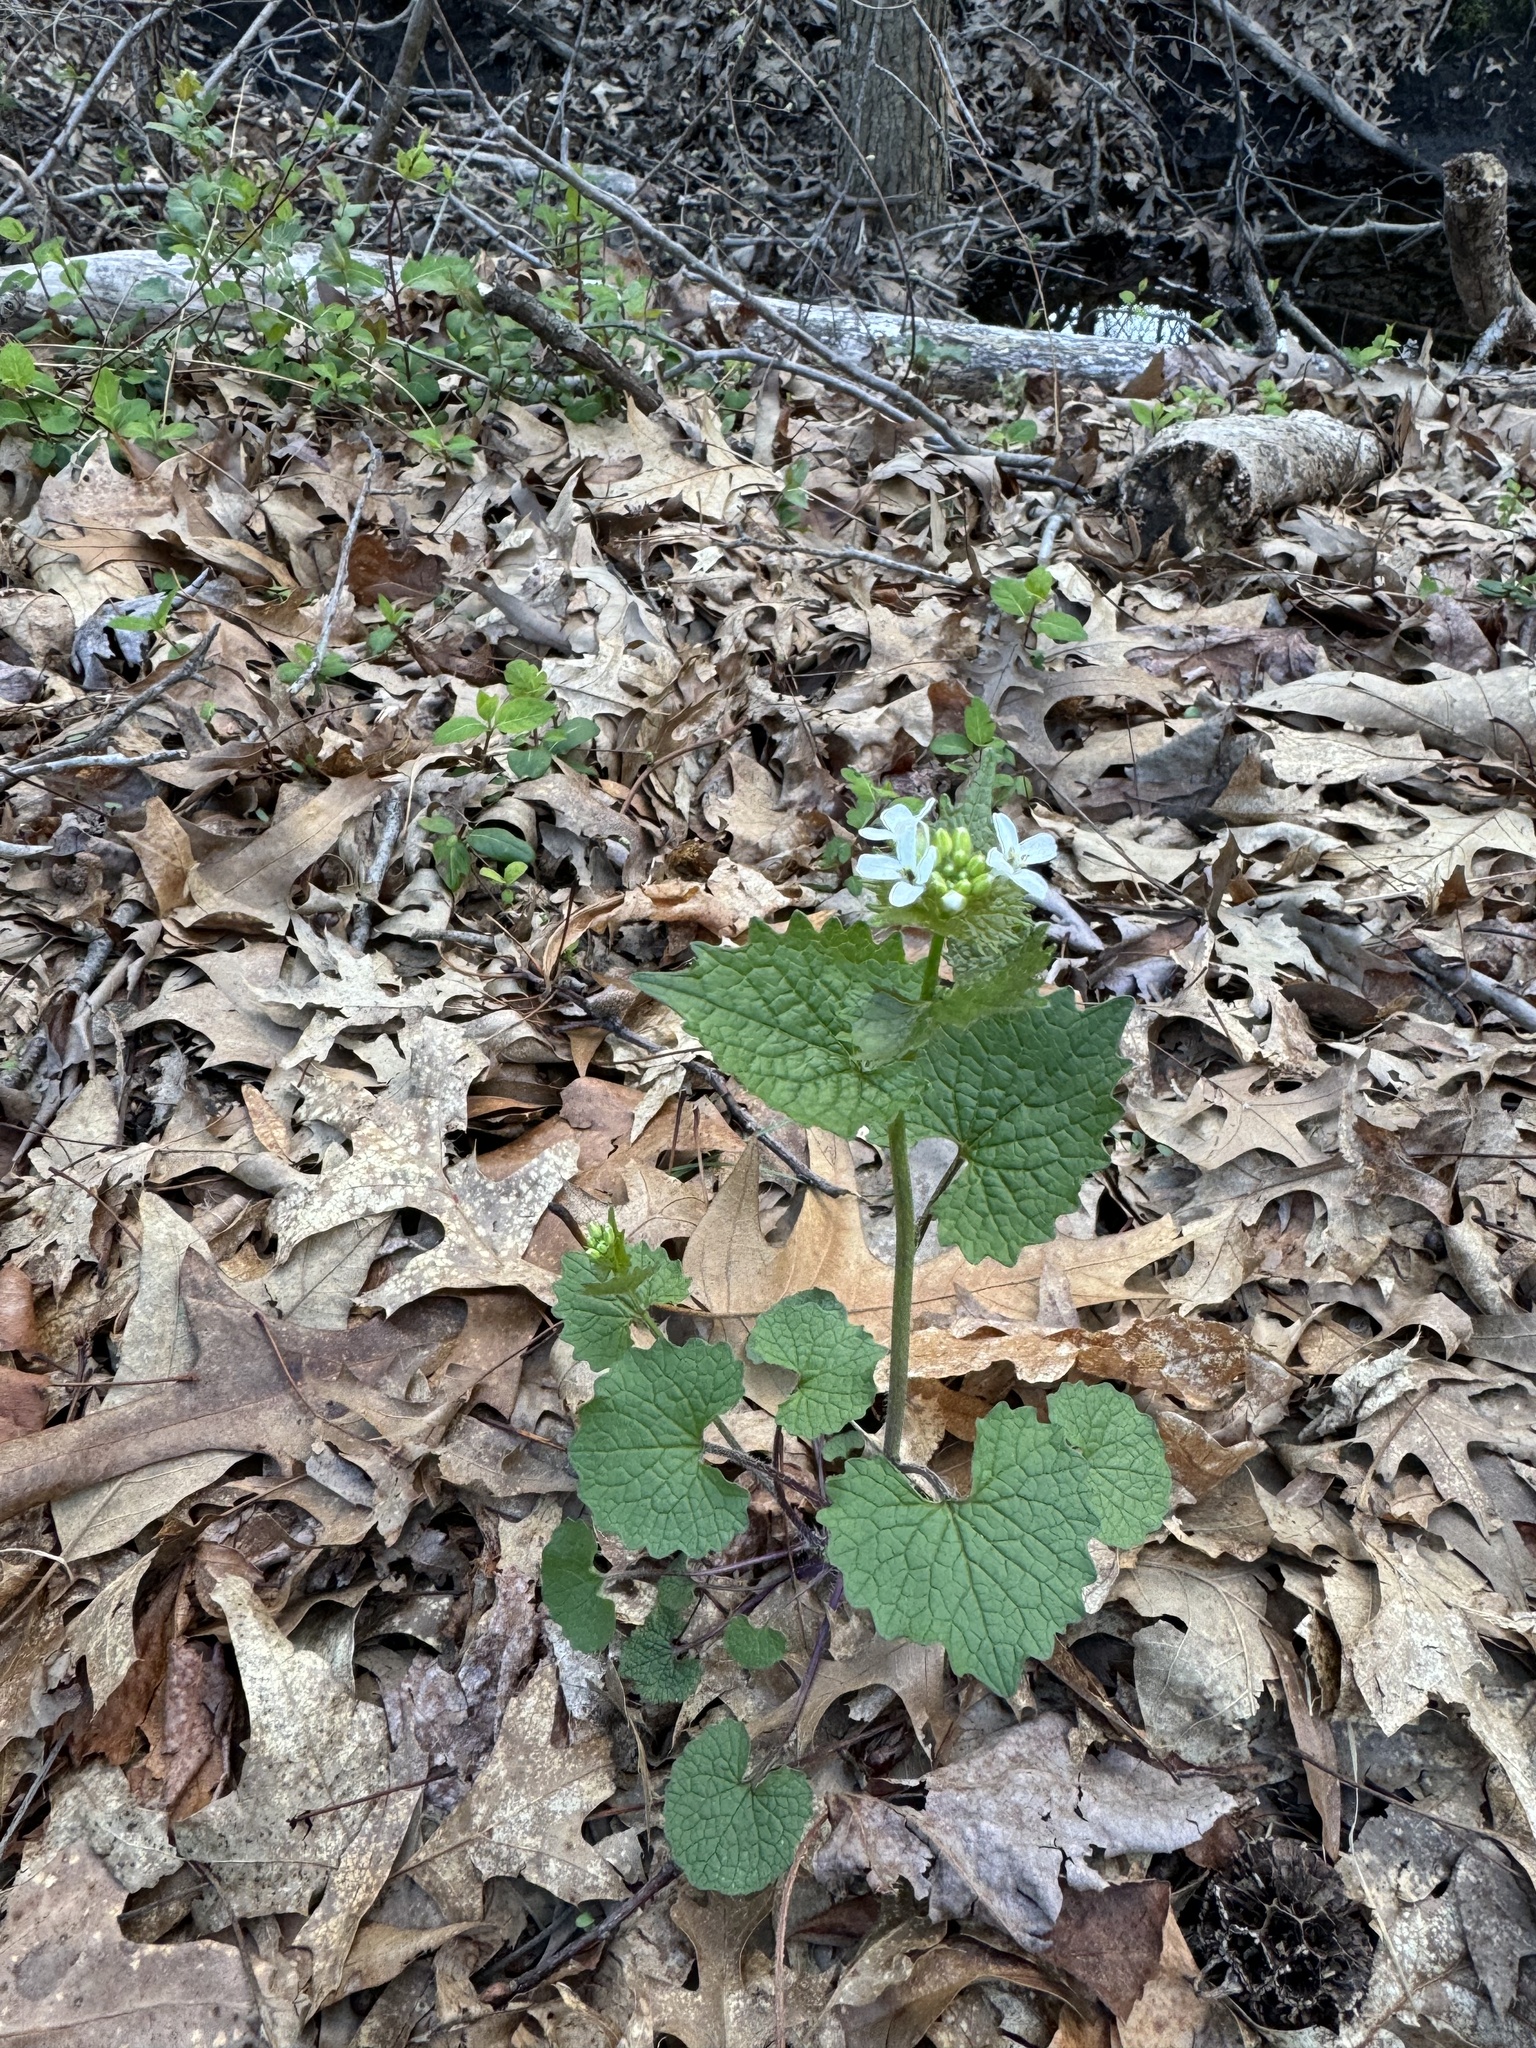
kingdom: Plantae
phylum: Tracheophyta
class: Magnoliopsida
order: Brassicales
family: Brassicaceae
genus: Alliaria
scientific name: Alliaria petiolata
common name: Garlic mustard
